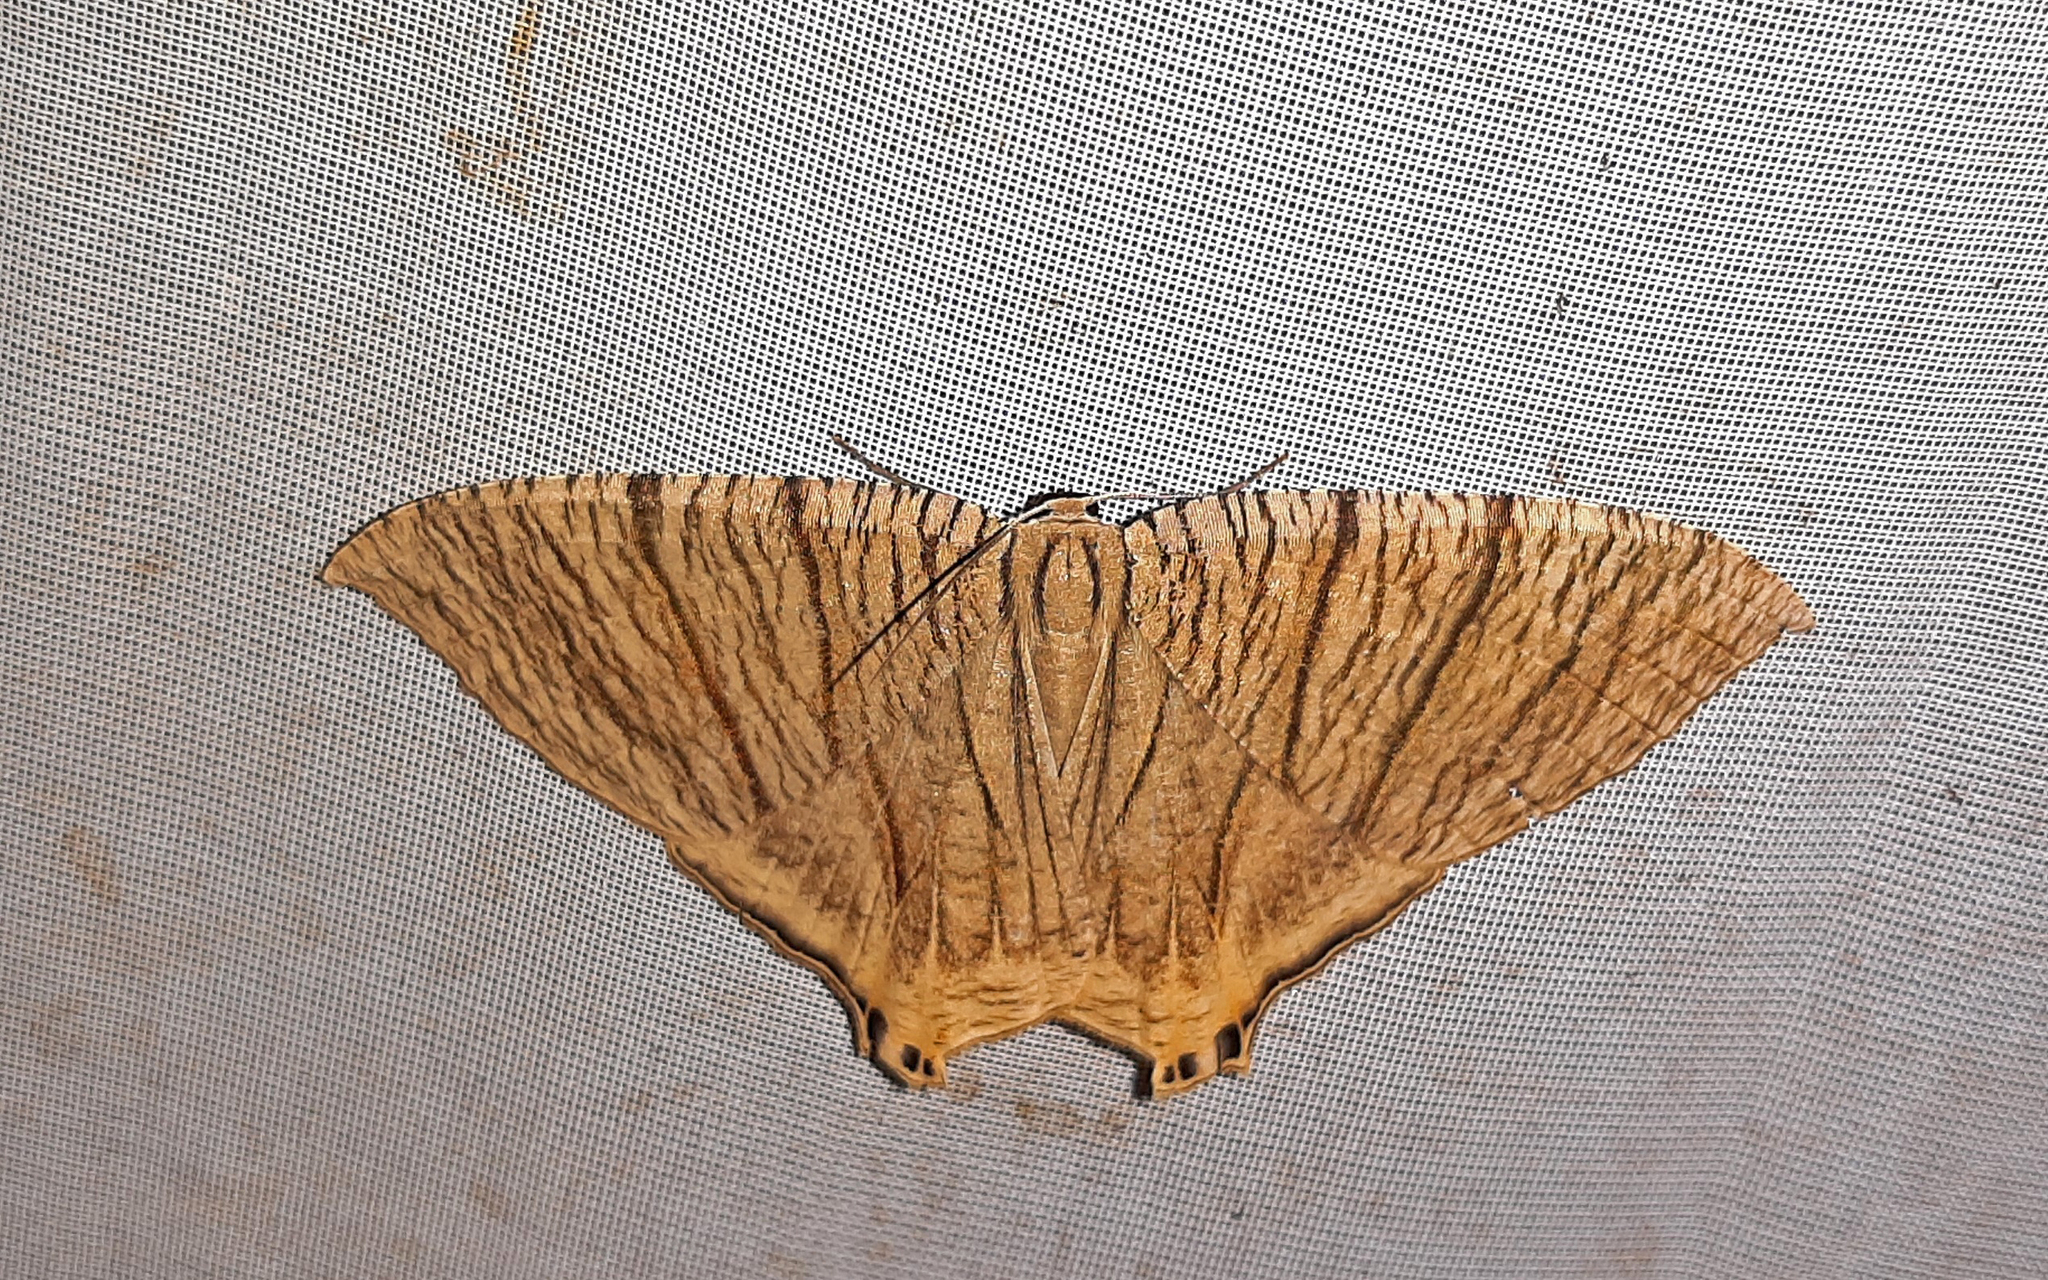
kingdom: Animalia
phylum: Arthropoda
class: Insecta
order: Lepidoptera
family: Uraniidae
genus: Meleaba
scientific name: Meleaba theclaria
